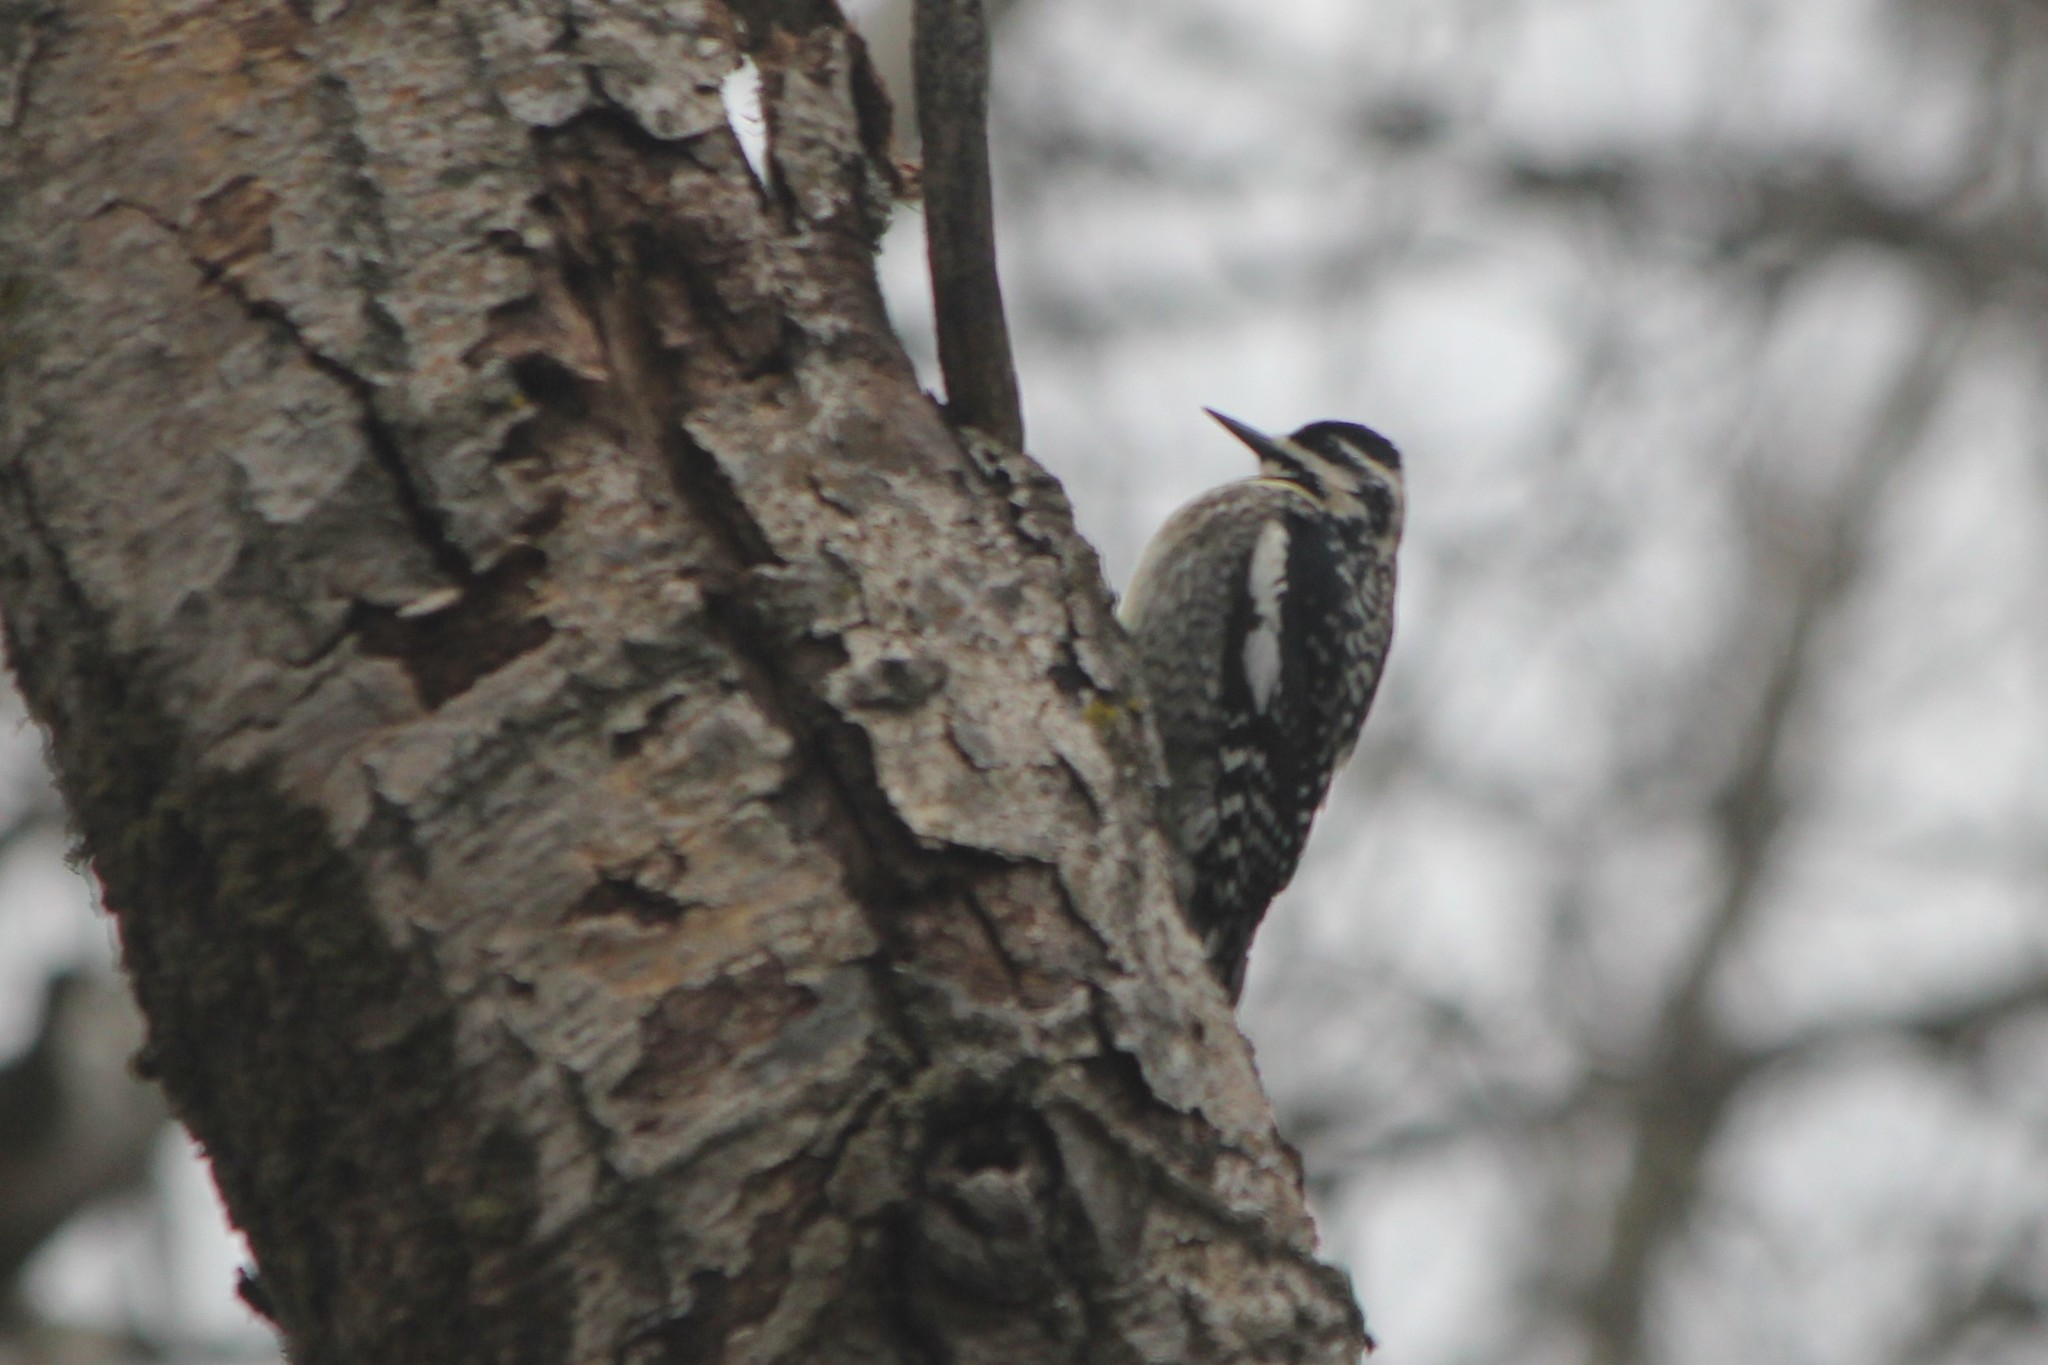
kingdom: Animalia
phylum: Chordata
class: Aves
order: Piciformes
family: Picidae
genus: Sphyrapicus
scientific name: Sphyrapicus varius
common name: Yellow-bellied sapsucker
